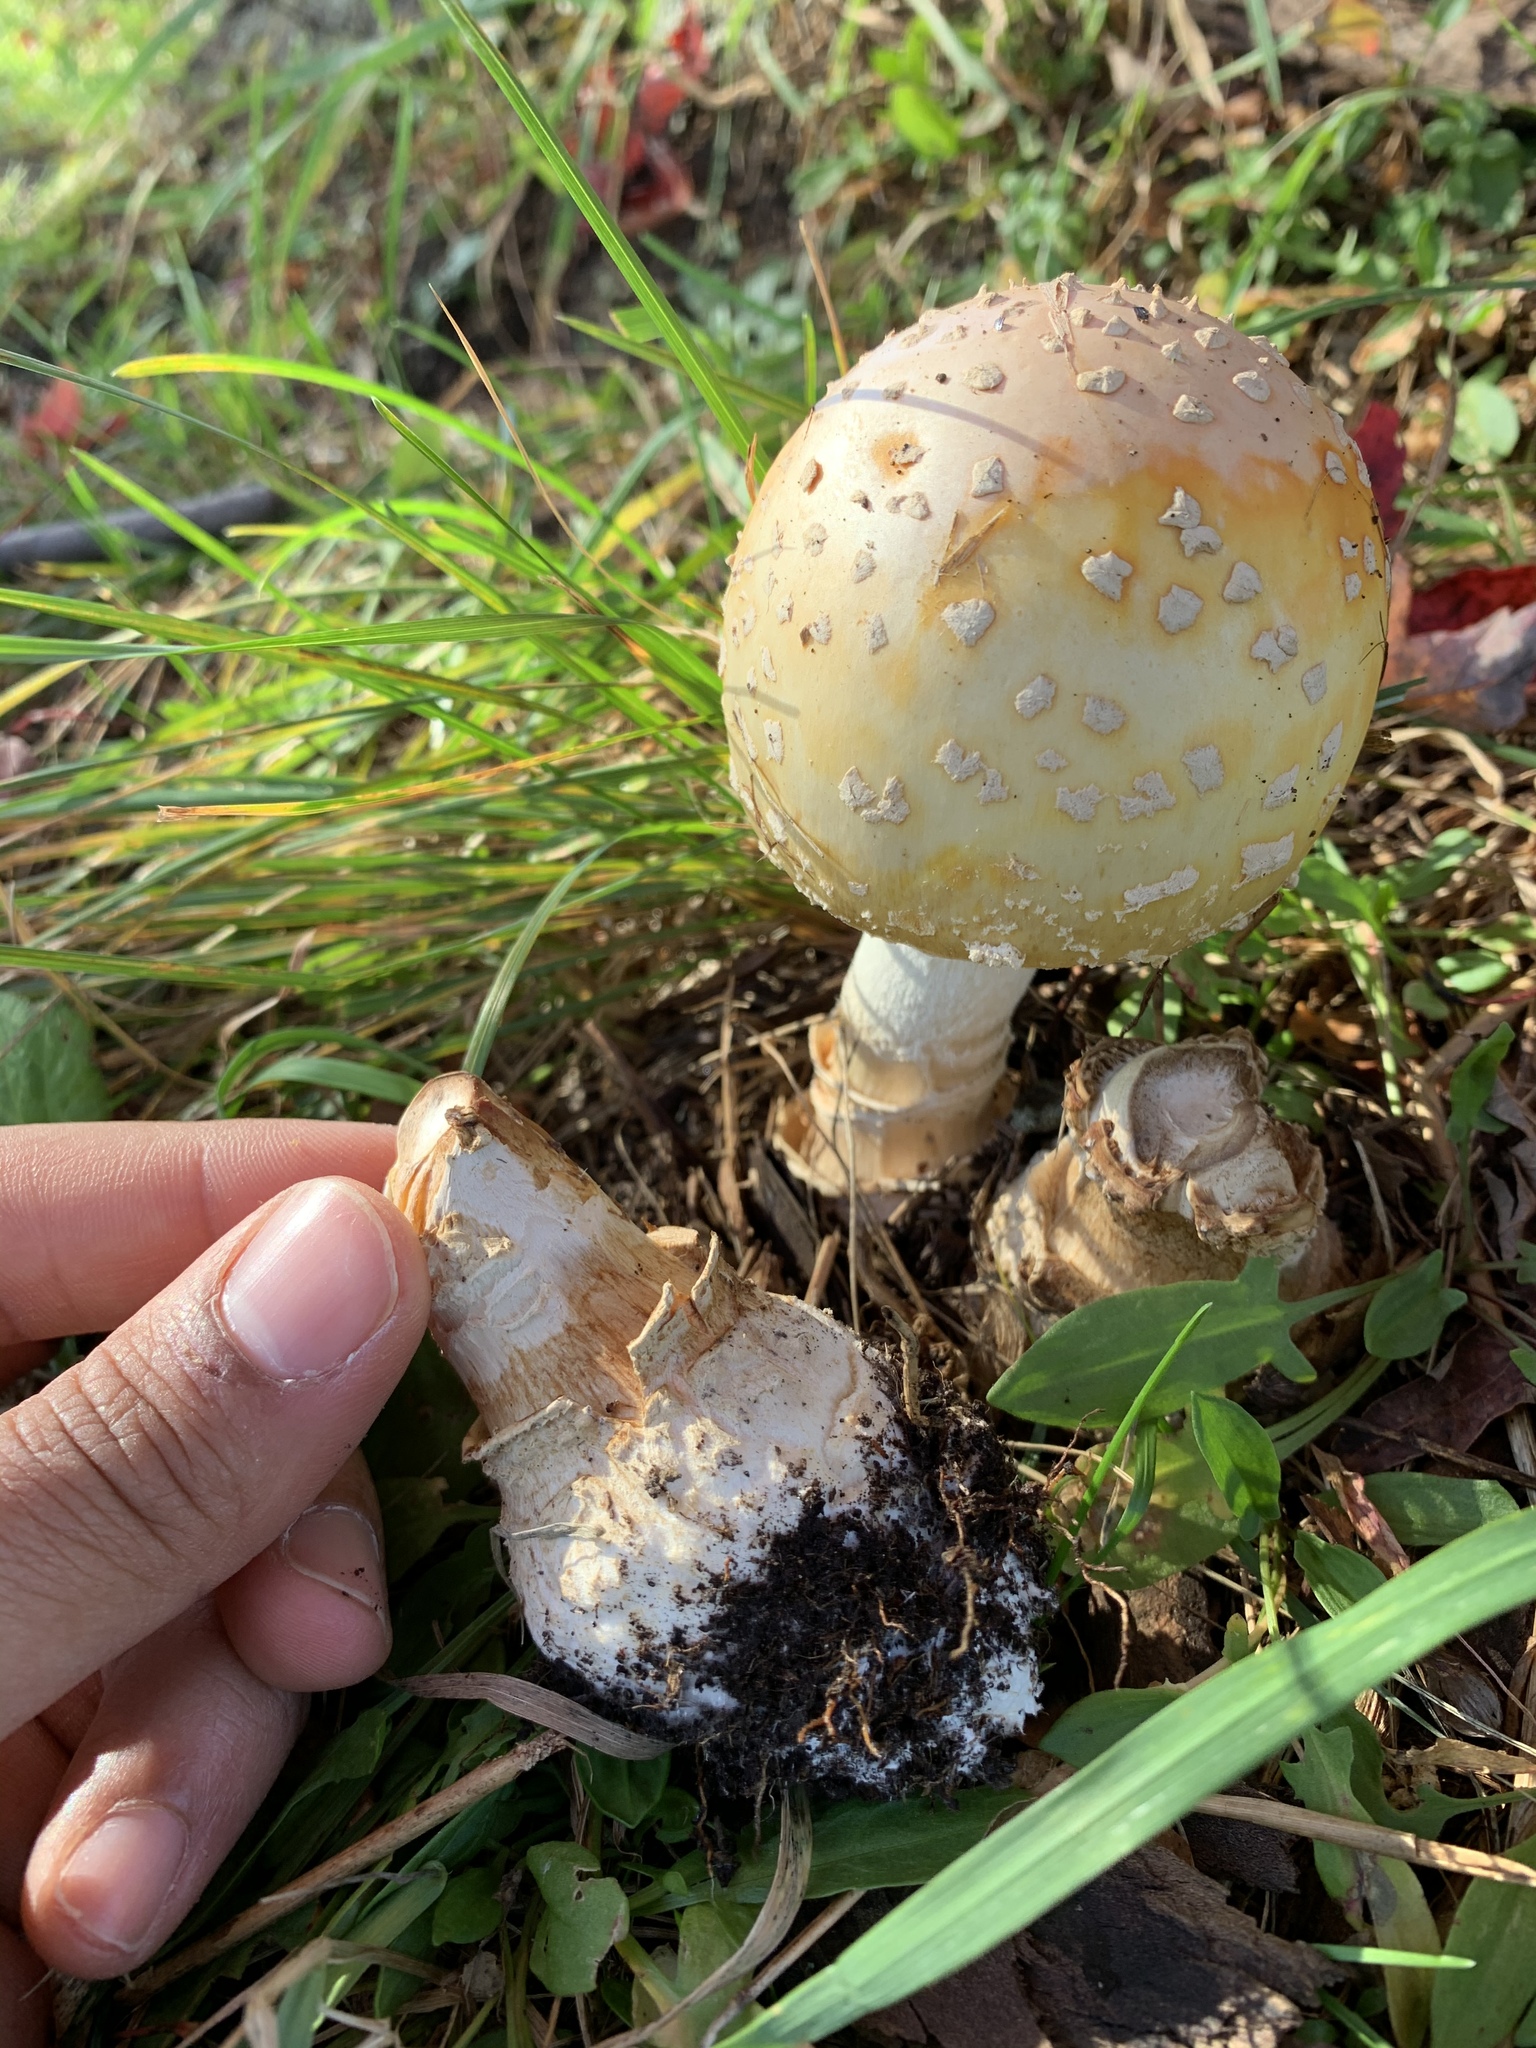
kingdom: Fungi
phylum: Basidiomycota
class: Agaricomycetes
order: Agaricales
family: Amanitaceae
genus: Amanita
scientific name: Amanita muscaria
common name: Fly agaric
